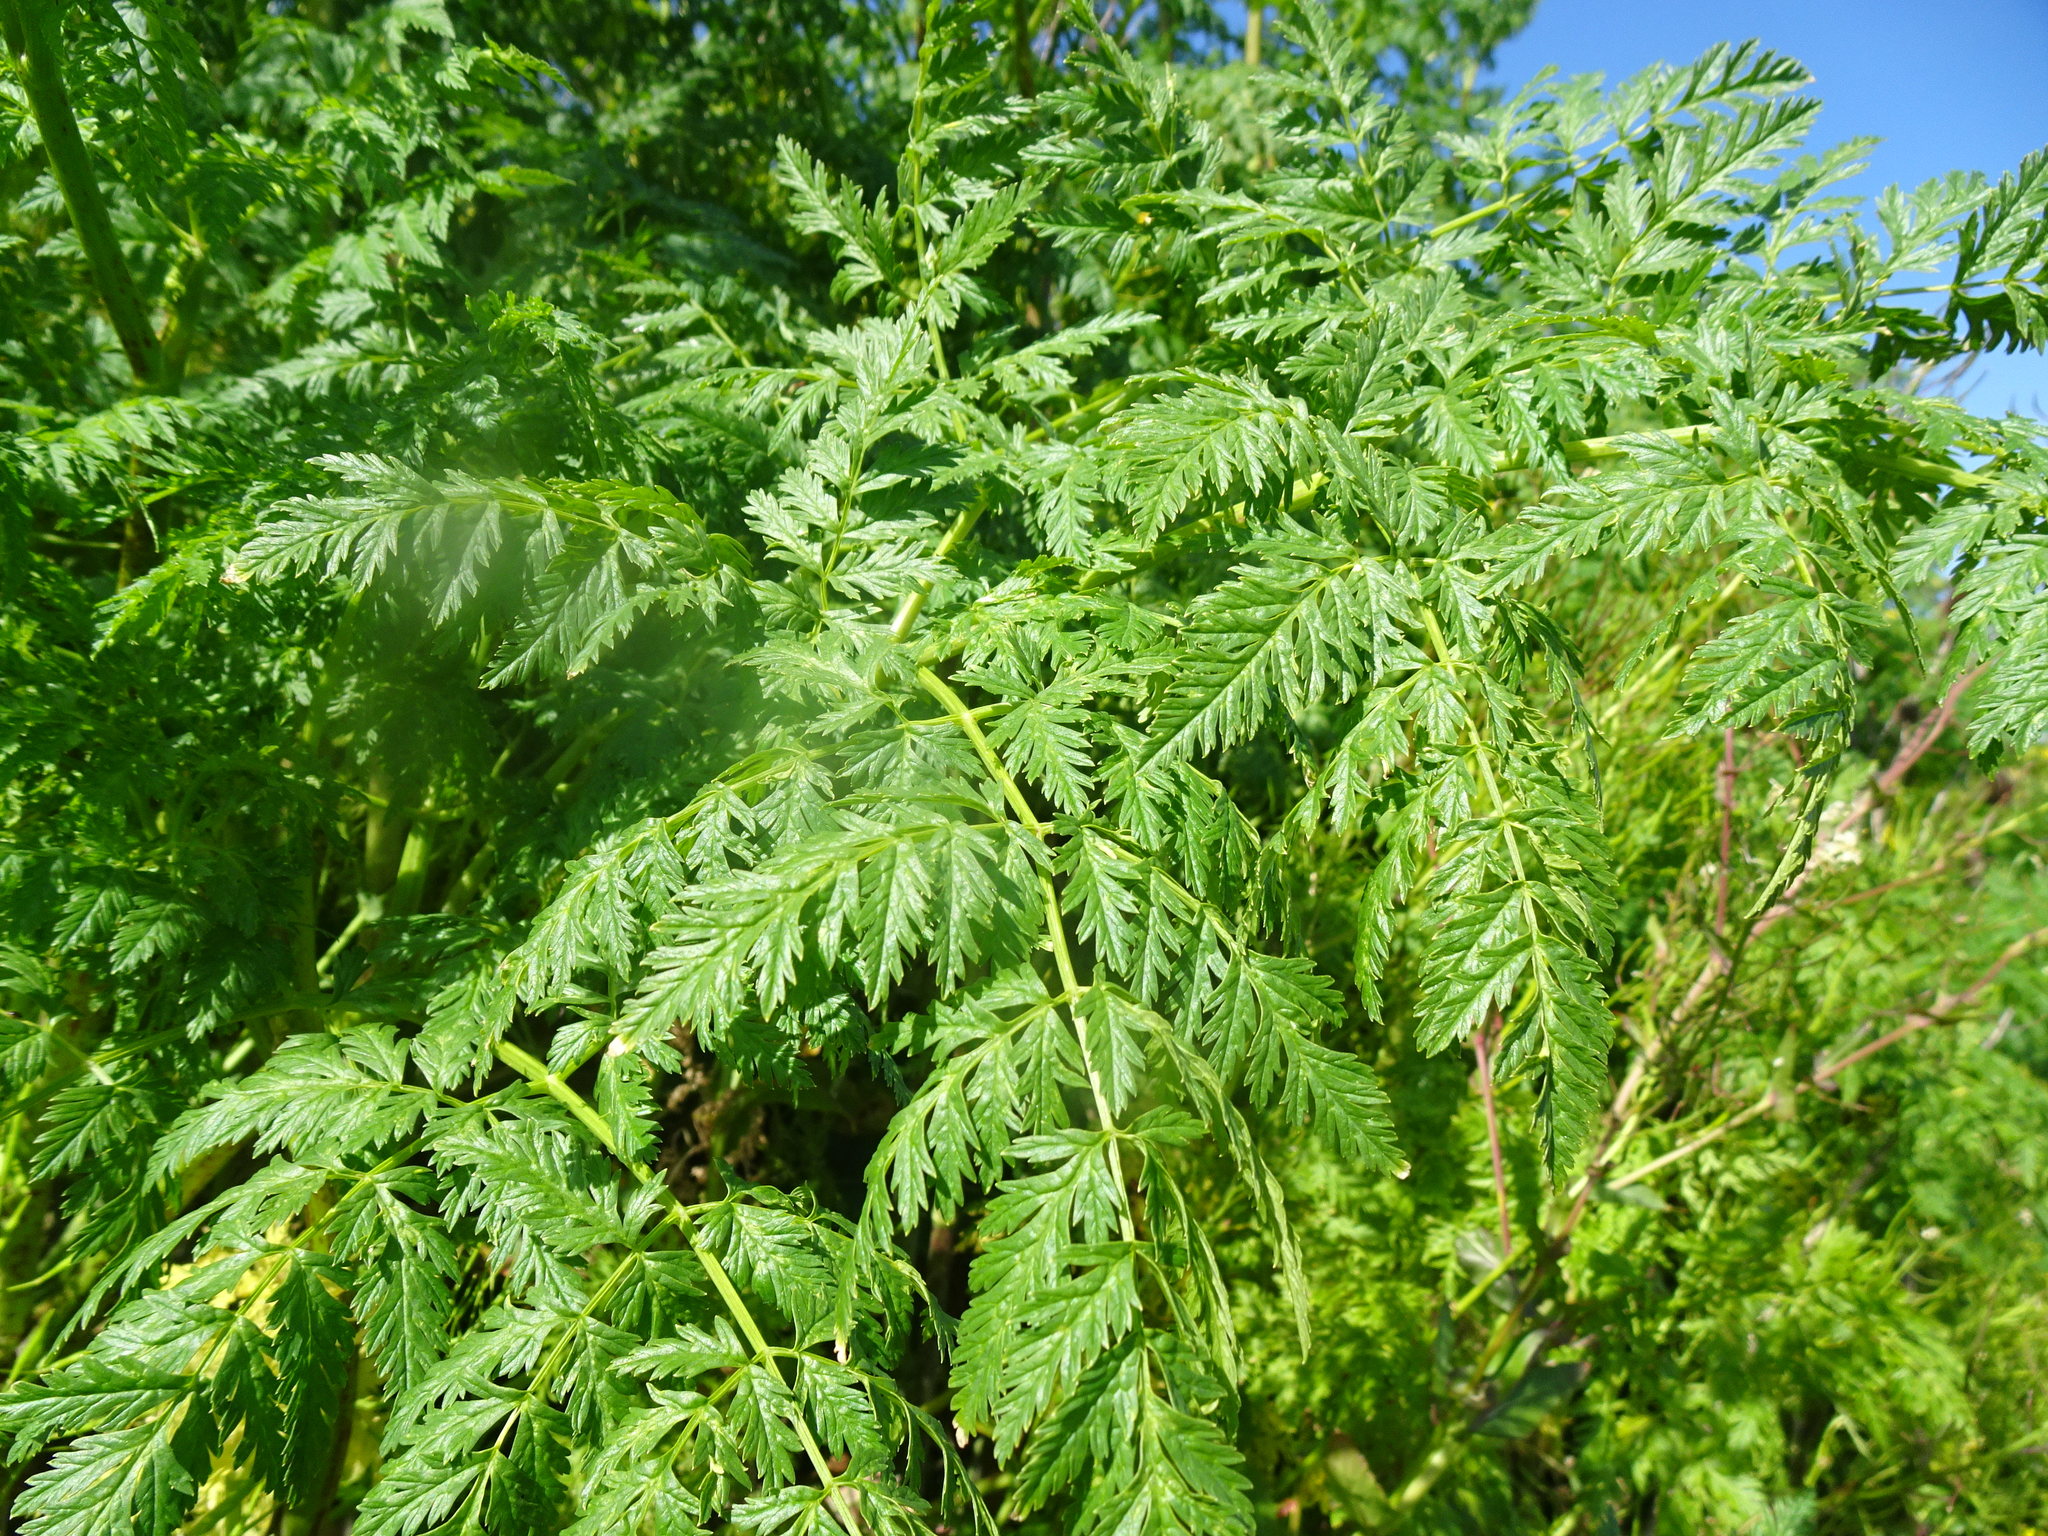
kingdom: Plantae
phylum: Tracheophyta
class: Magnoliopsida
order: Apiales
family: Apiaceae
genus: Conium
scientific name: Conium maculatum
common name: Hemlock
